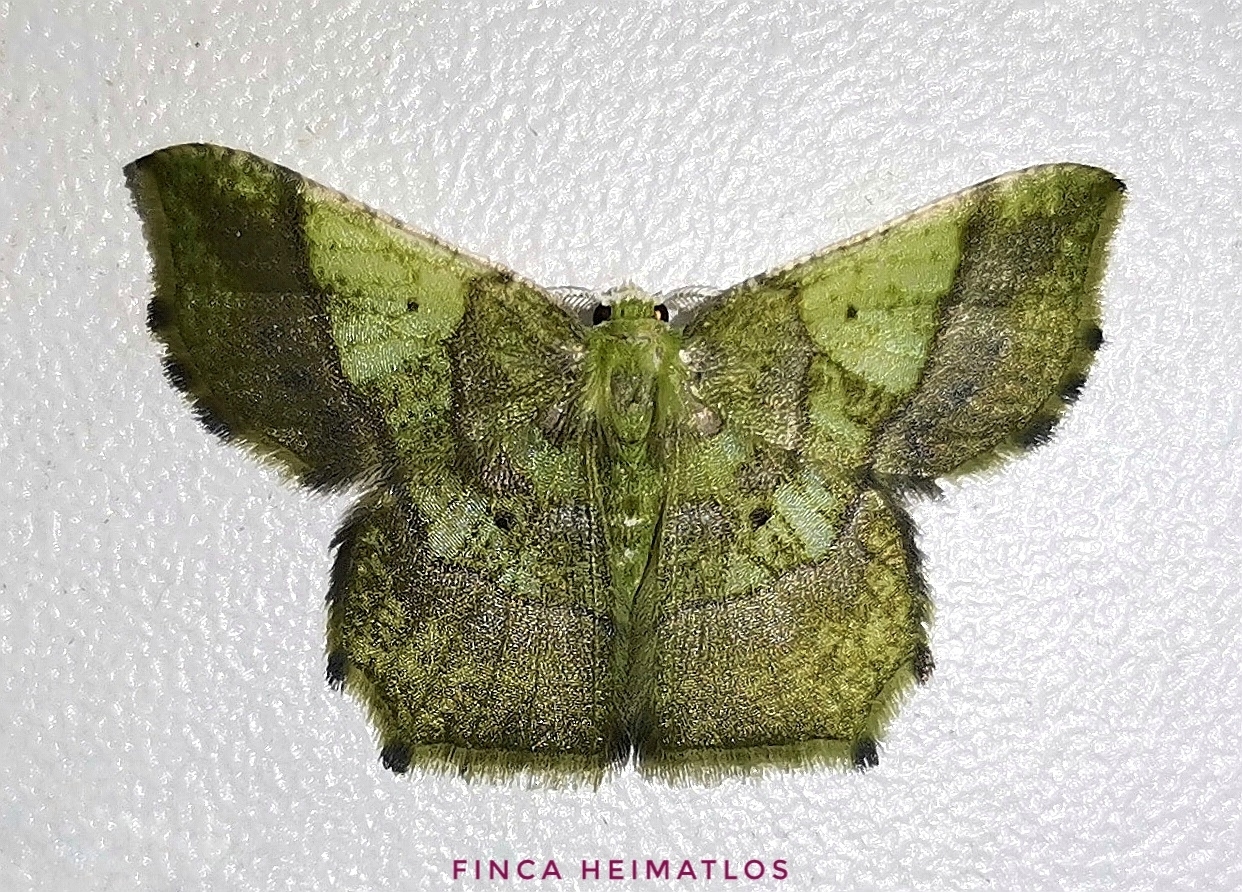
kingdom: Animalia
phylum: Arthropoda
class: Insecta
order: Lepidoptera
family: Geometridae
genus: Neagathia
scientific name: Neagathia corruptata
